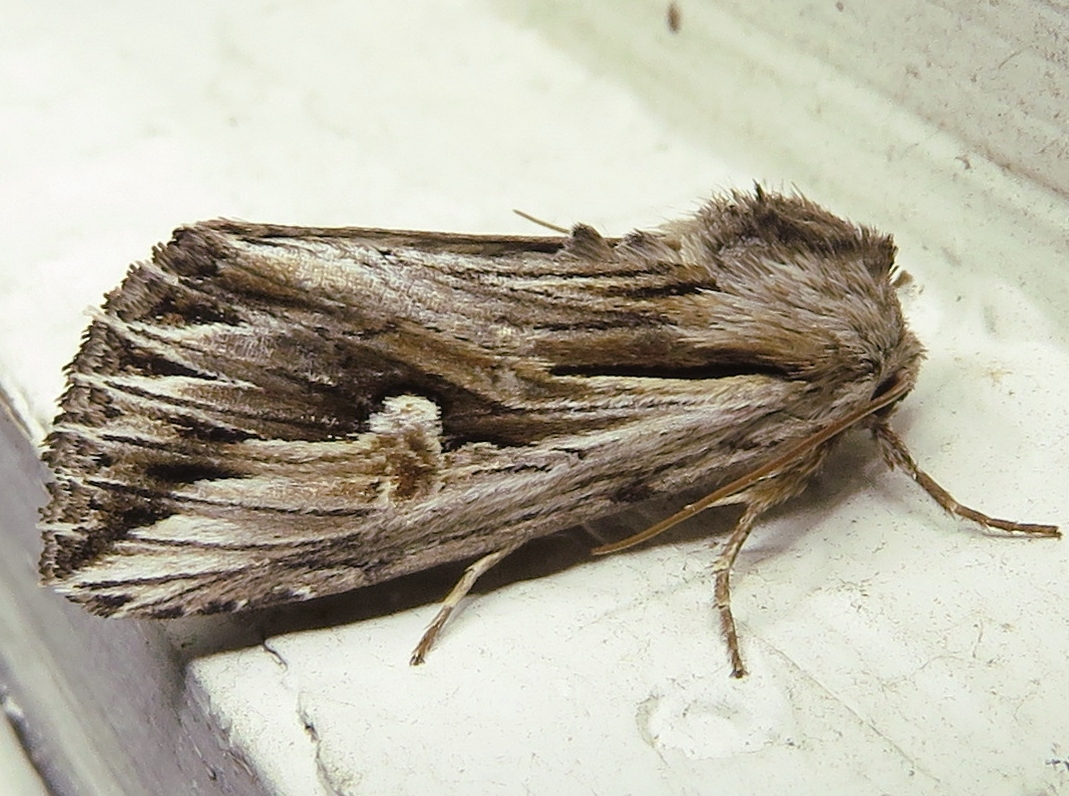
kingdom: Animalia
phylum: Arthropoda
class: Insecta
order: Lepidoptera
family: Noctuidae
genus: Nedra
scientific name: Nedra ramosula
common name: Gray half-spot
